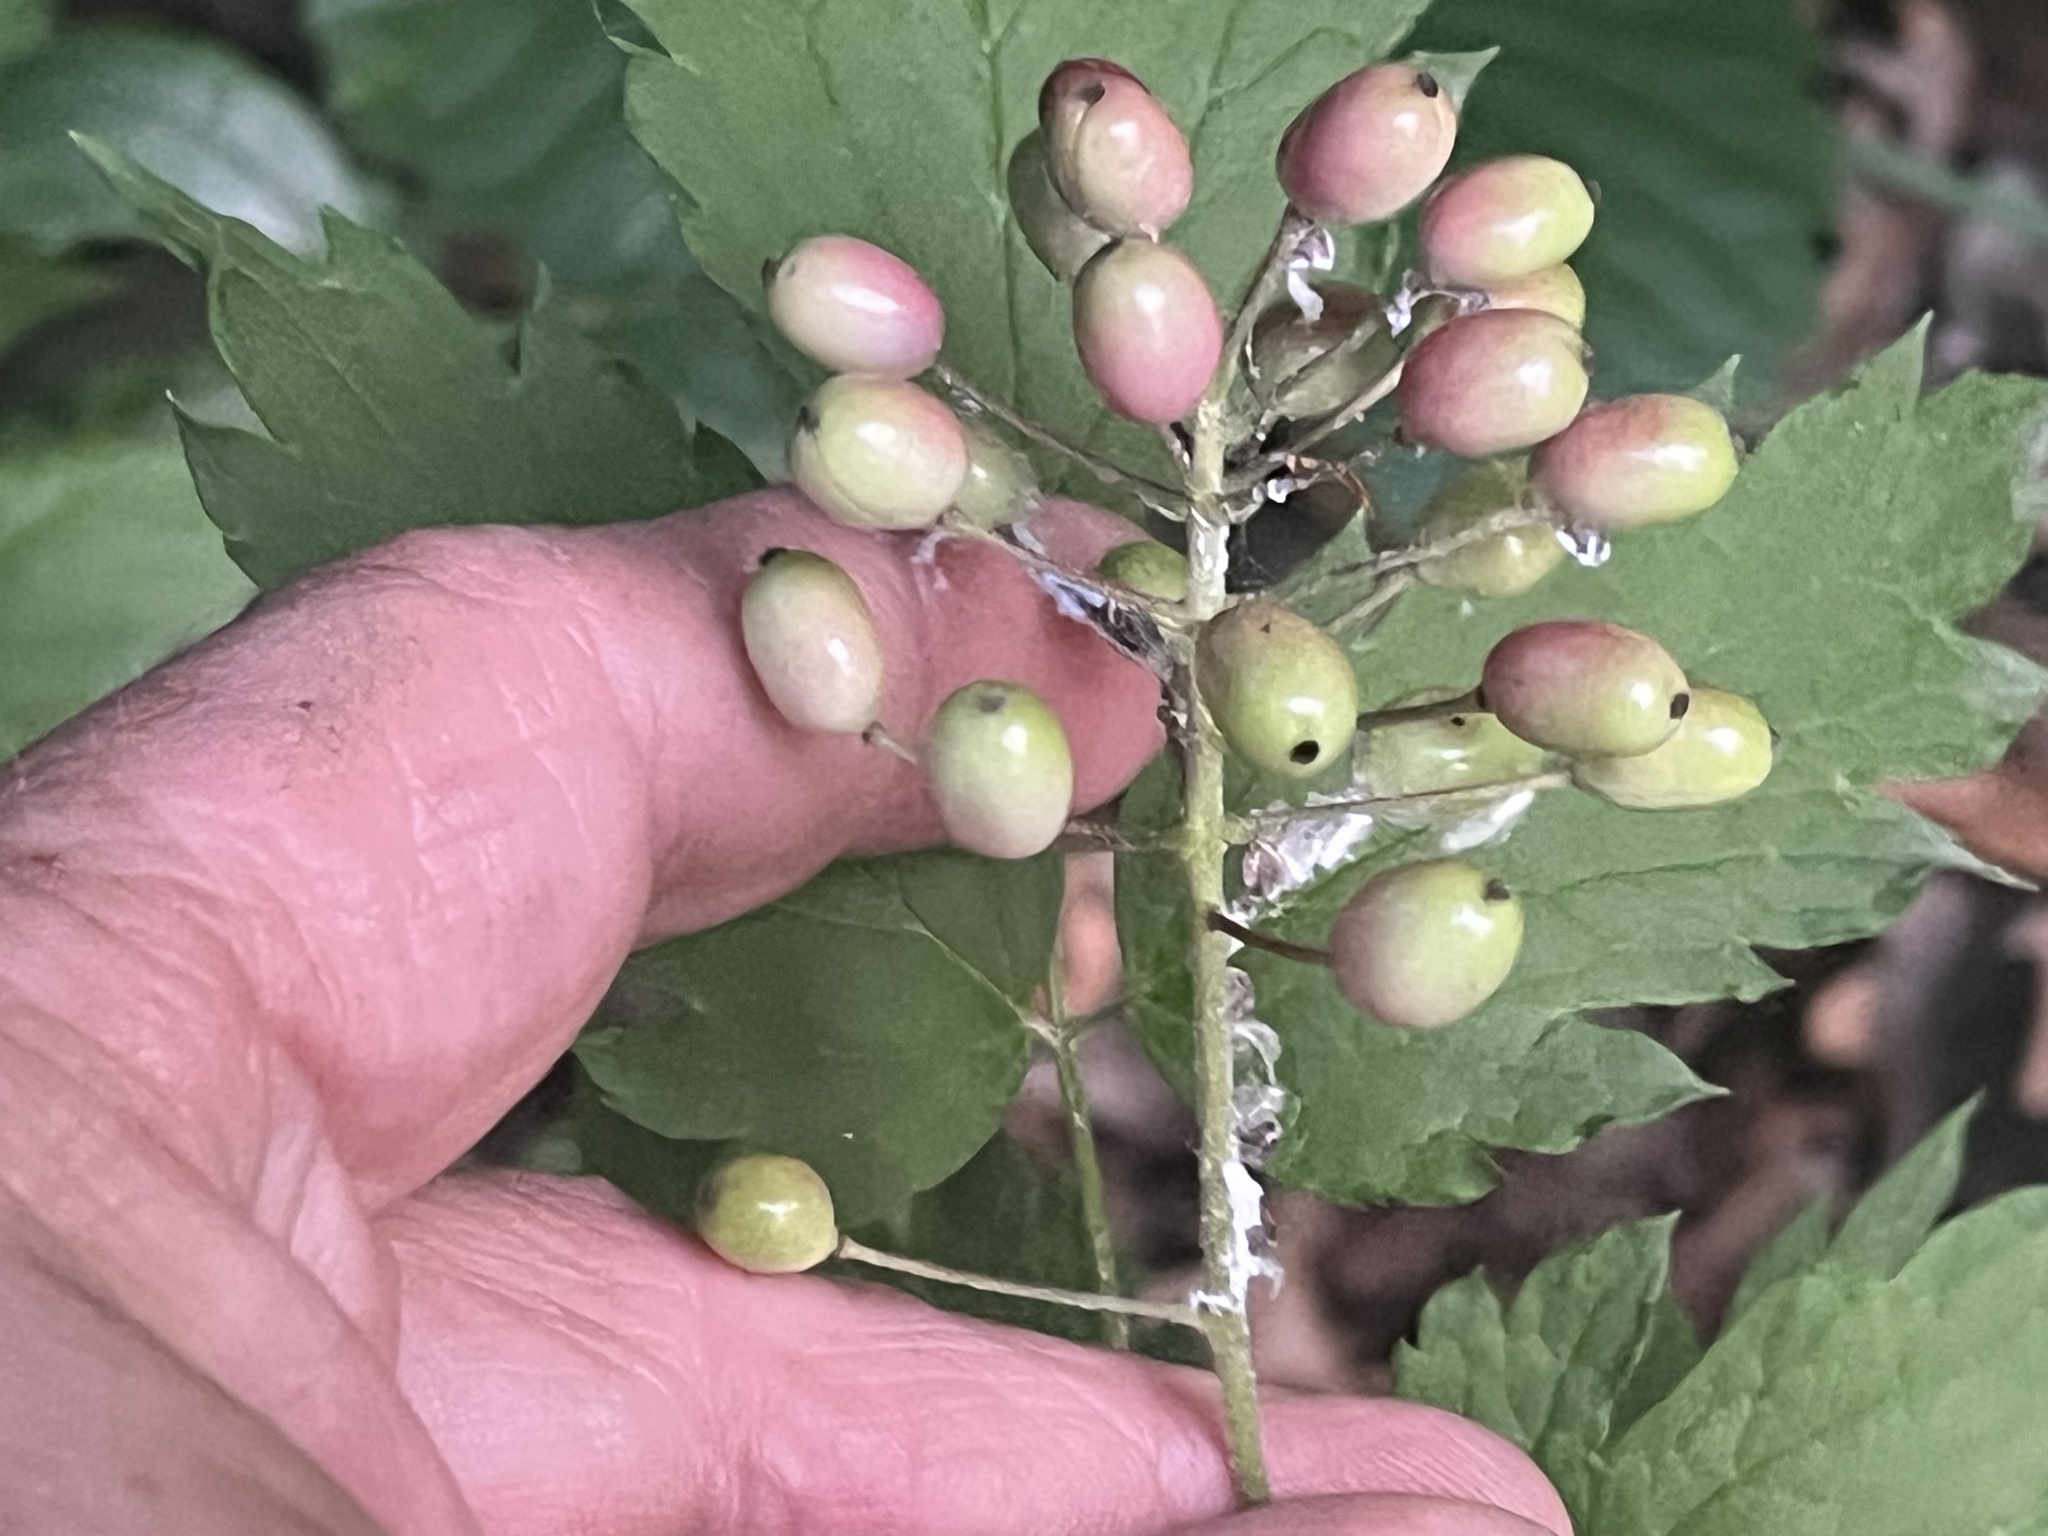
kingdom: Plantae
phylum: Tracheophyta
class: Magnoliopsida
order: Ranunculales
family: Ranunculaceae
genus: Actaea
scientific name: Actaea rubra
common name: Red baneberry
